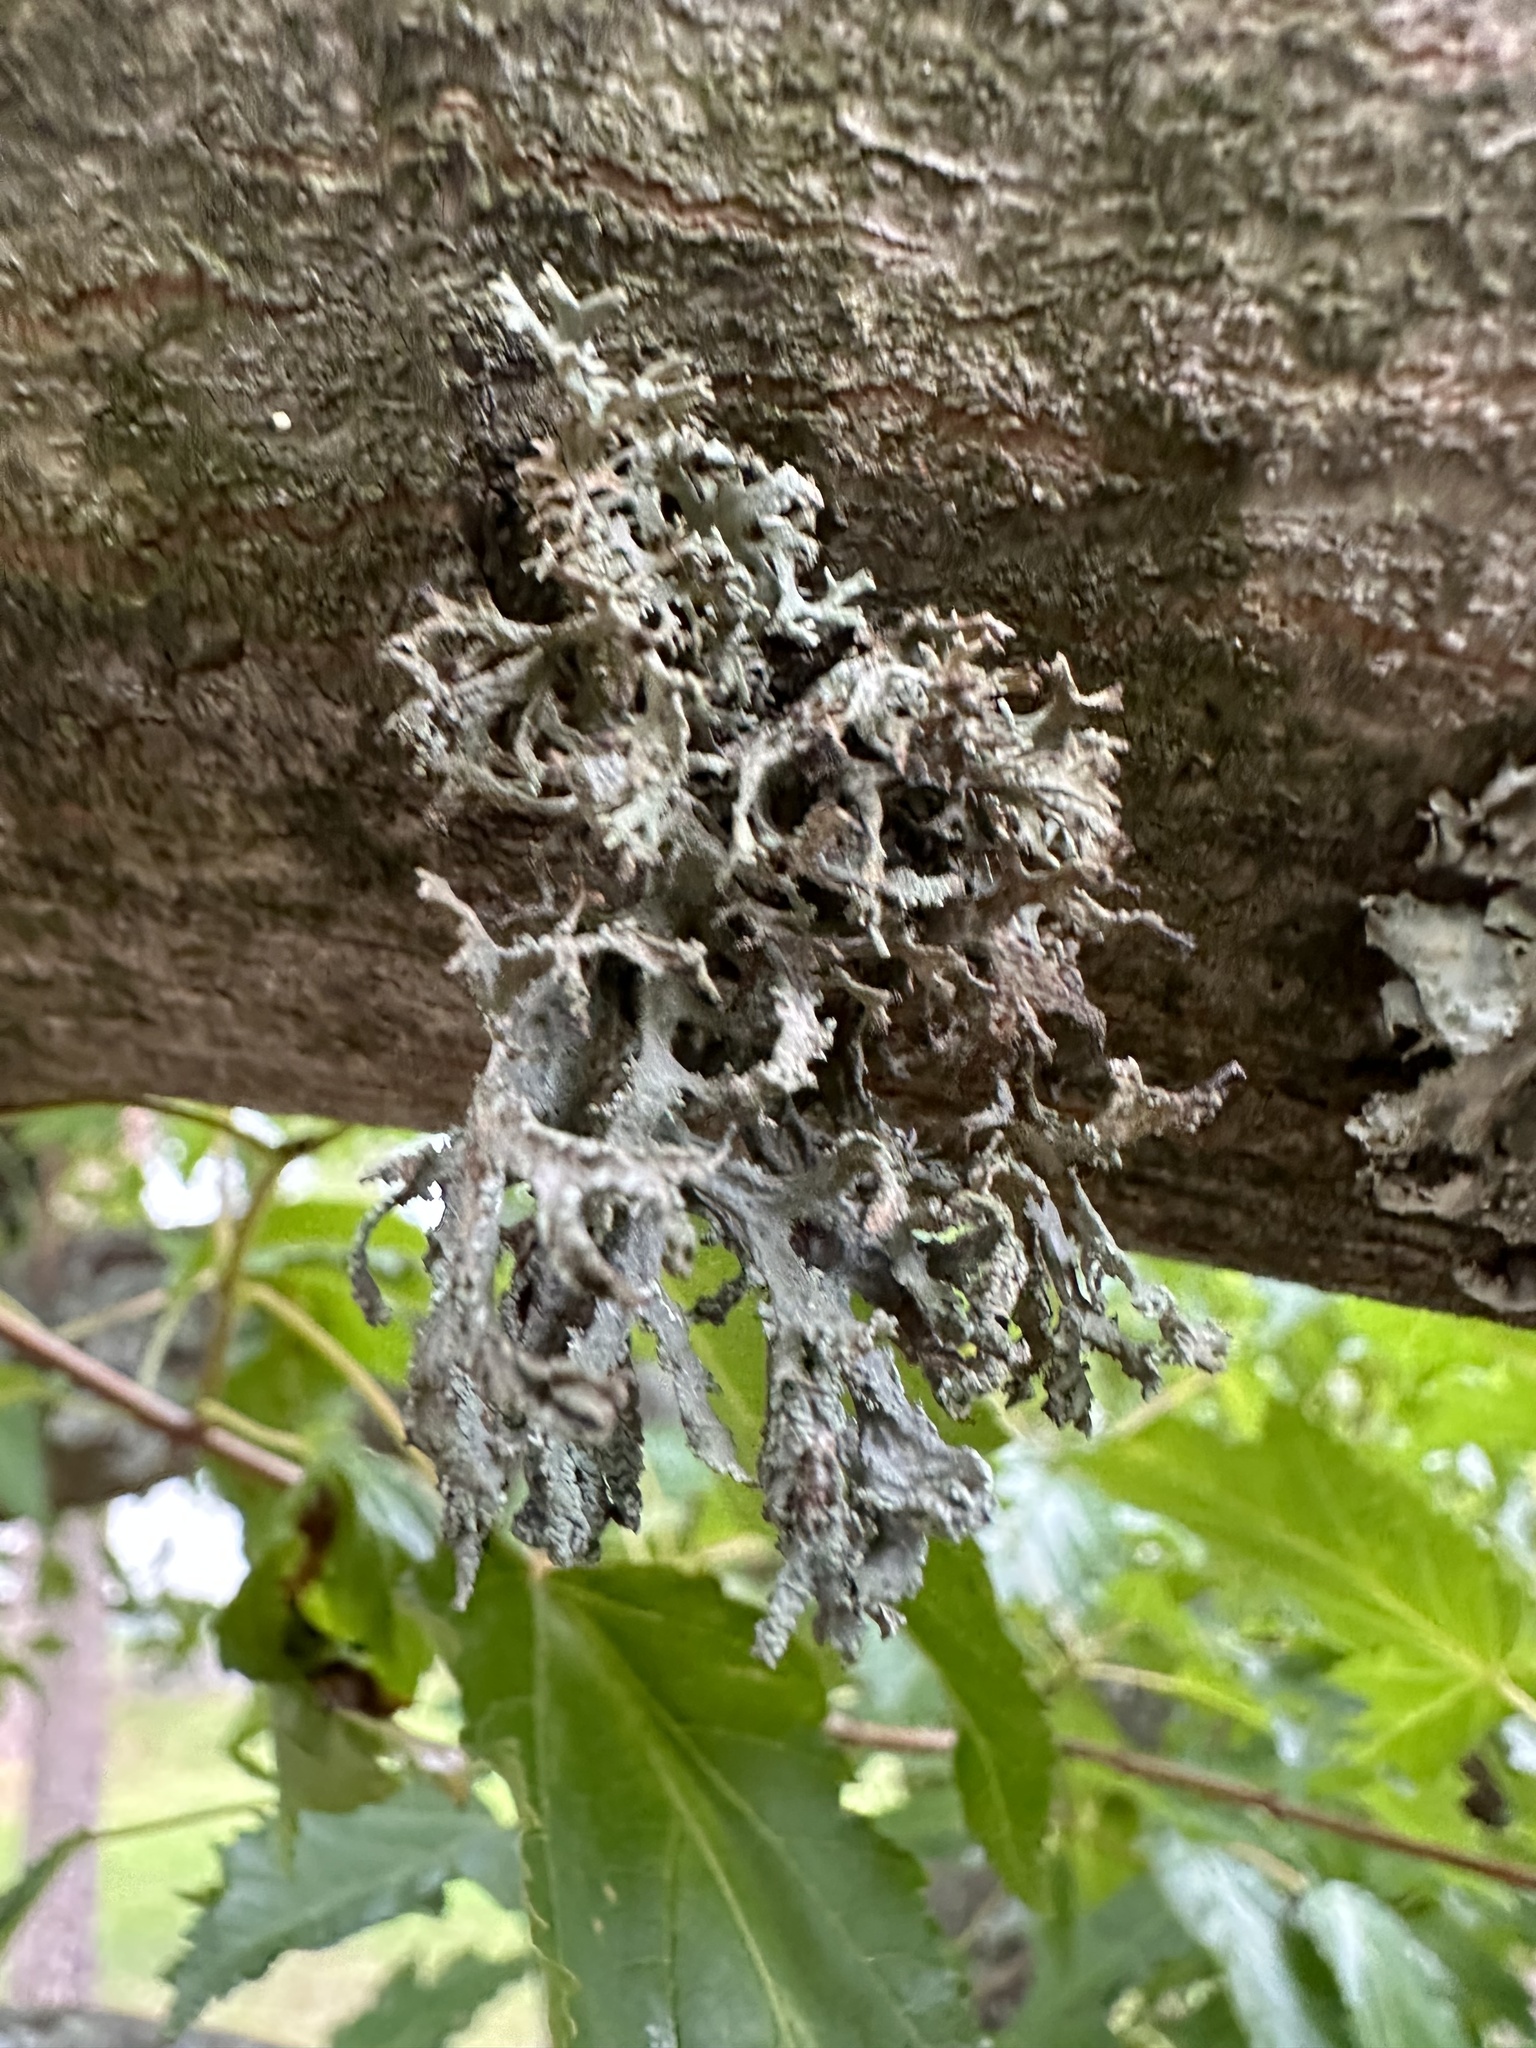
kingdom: Fungi
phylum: Ascomycota
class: Lecanoromycetes
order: Lecanorales
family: Parmeliaceae
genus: Evernia
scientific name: Evernia prunastri
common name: Oak moss
